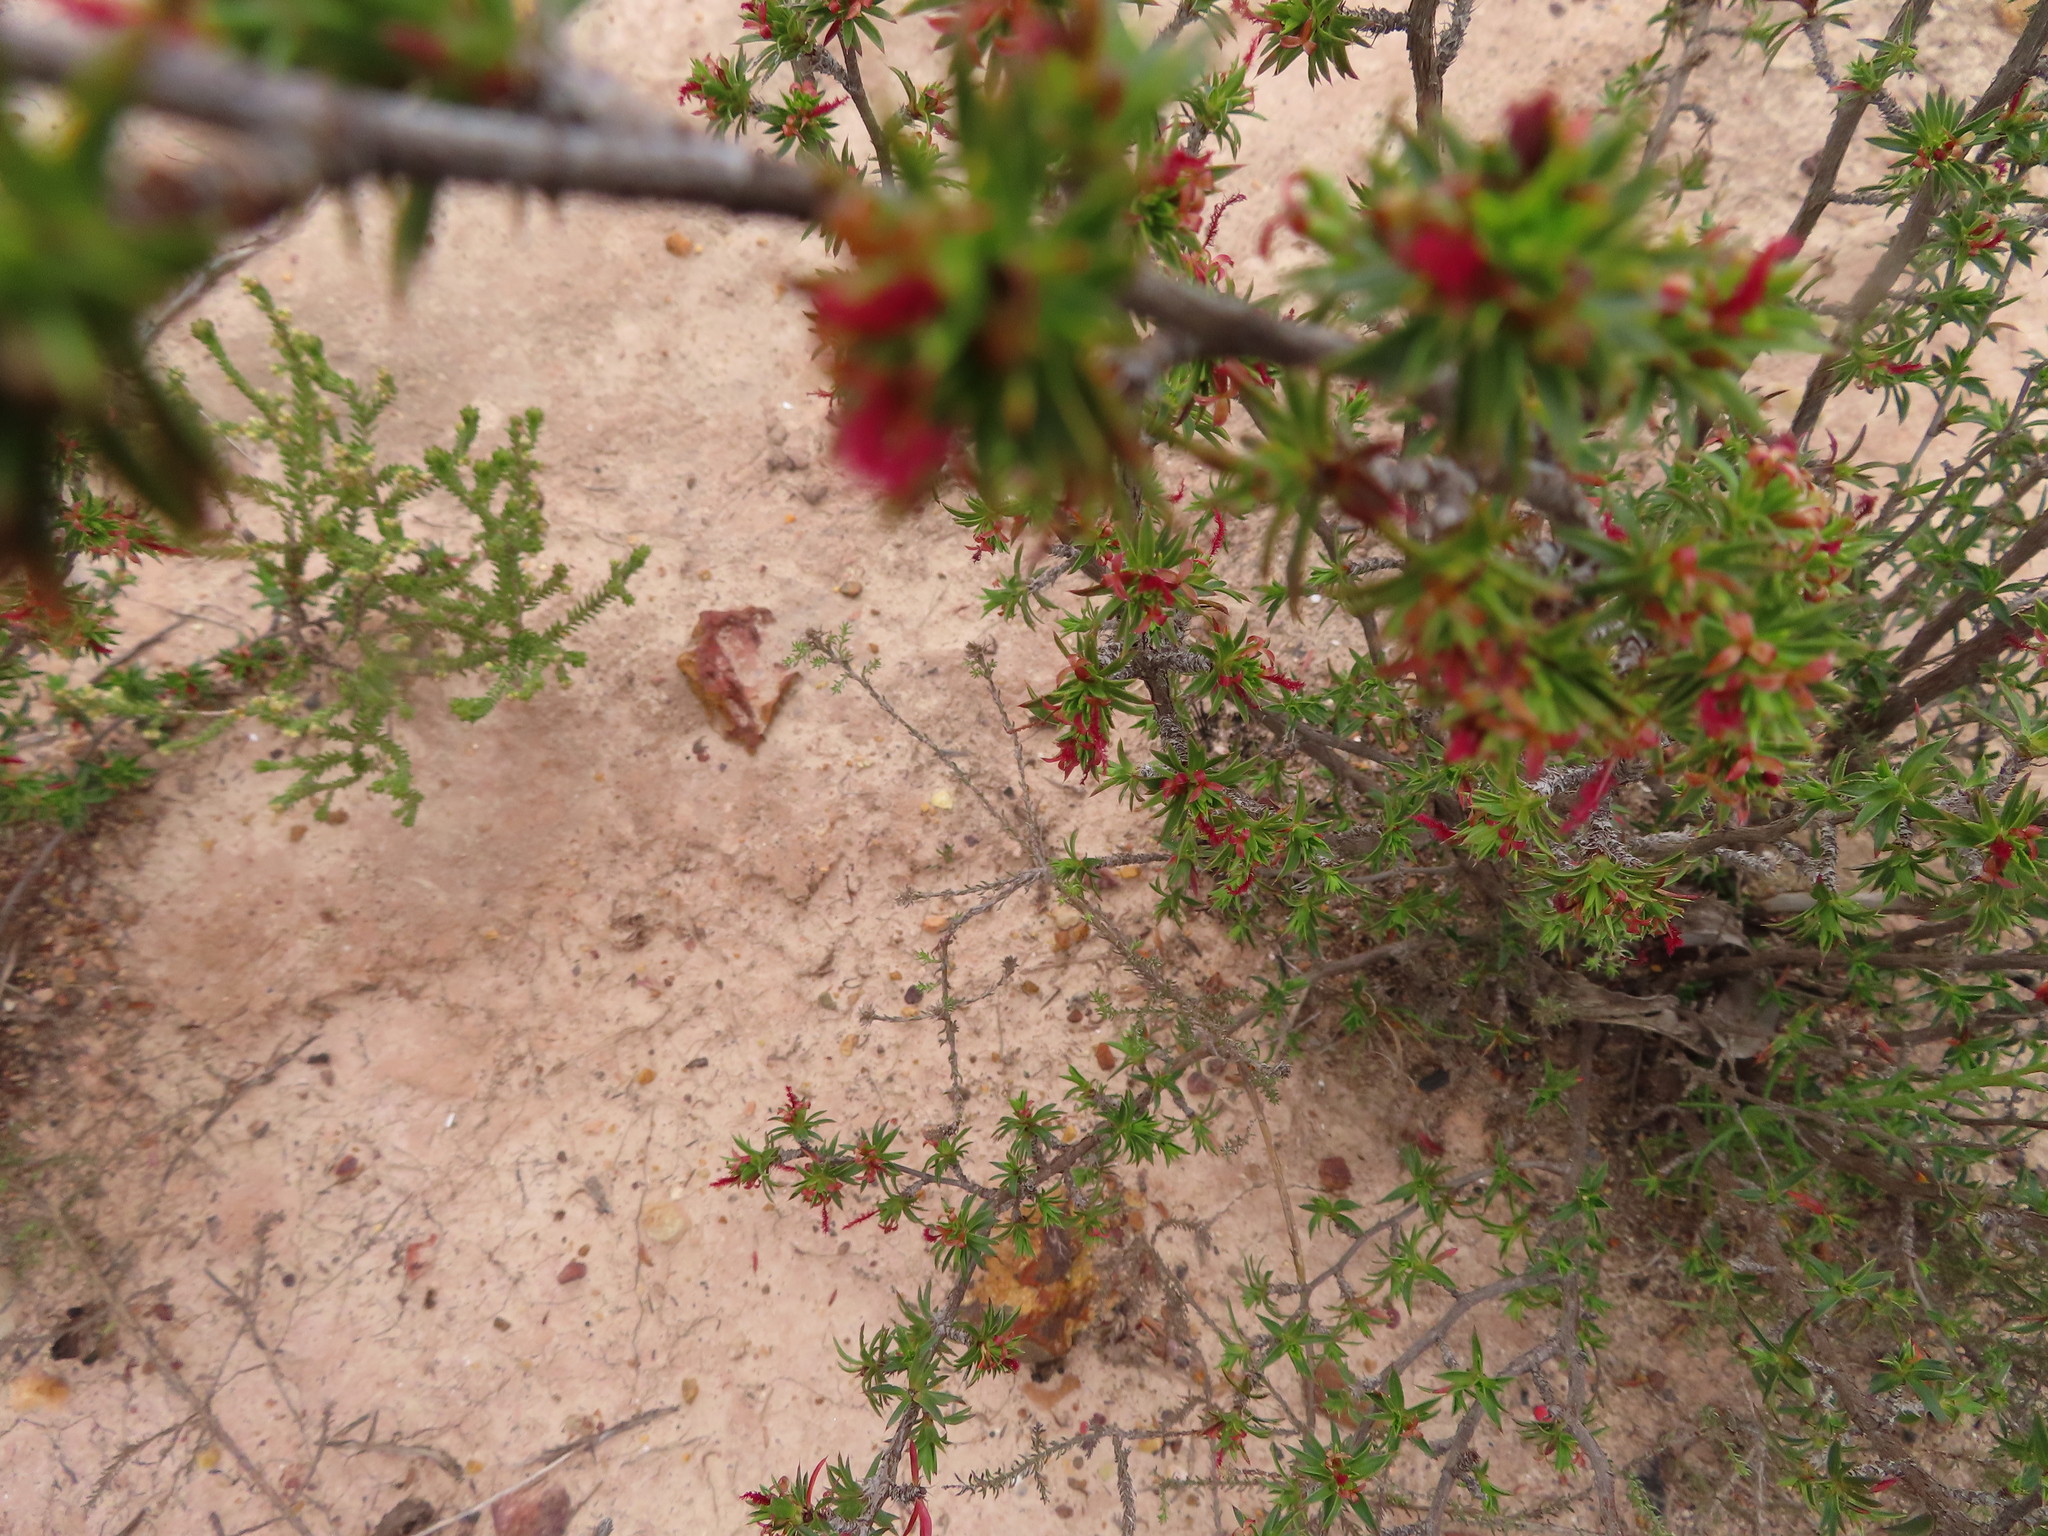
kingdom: Plantae
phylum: Tracheophyta
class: Magnoliopsida
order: Rosales
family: Rosaceae
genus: Cliffortia
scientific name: Cliffortia ferricola
